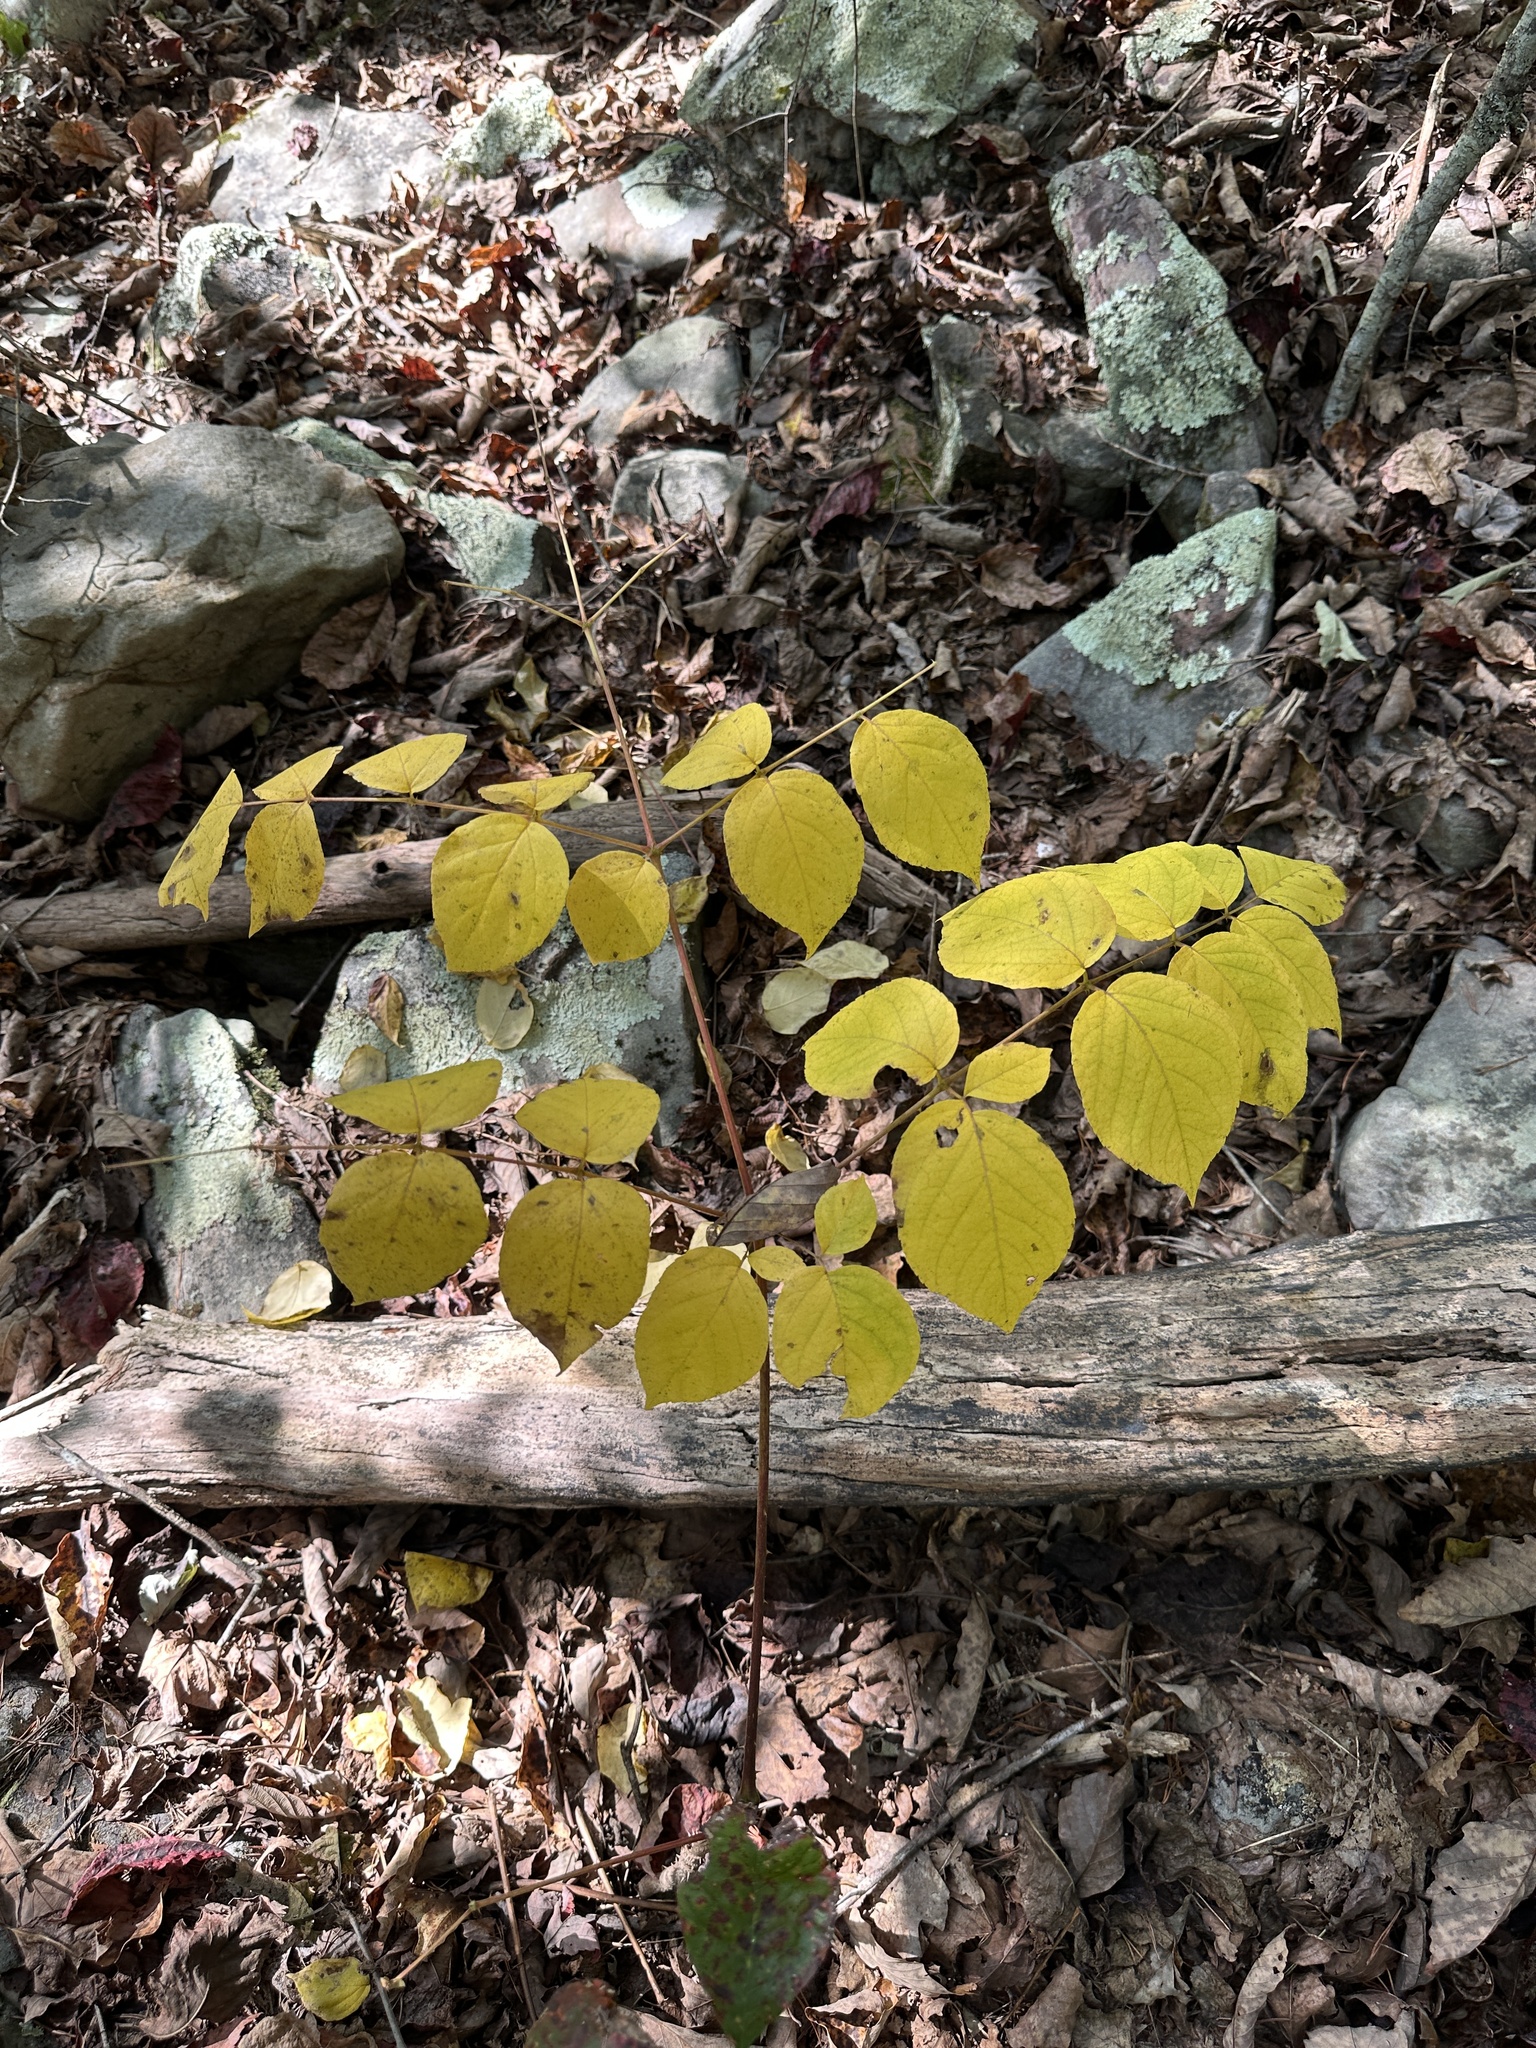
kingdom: Plantae
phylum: Tracheophyta
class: Magnoliopsida
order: Apiales
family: Araliaceae
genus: Aralia
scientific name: Aralia racemosa
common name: American-spikenard
